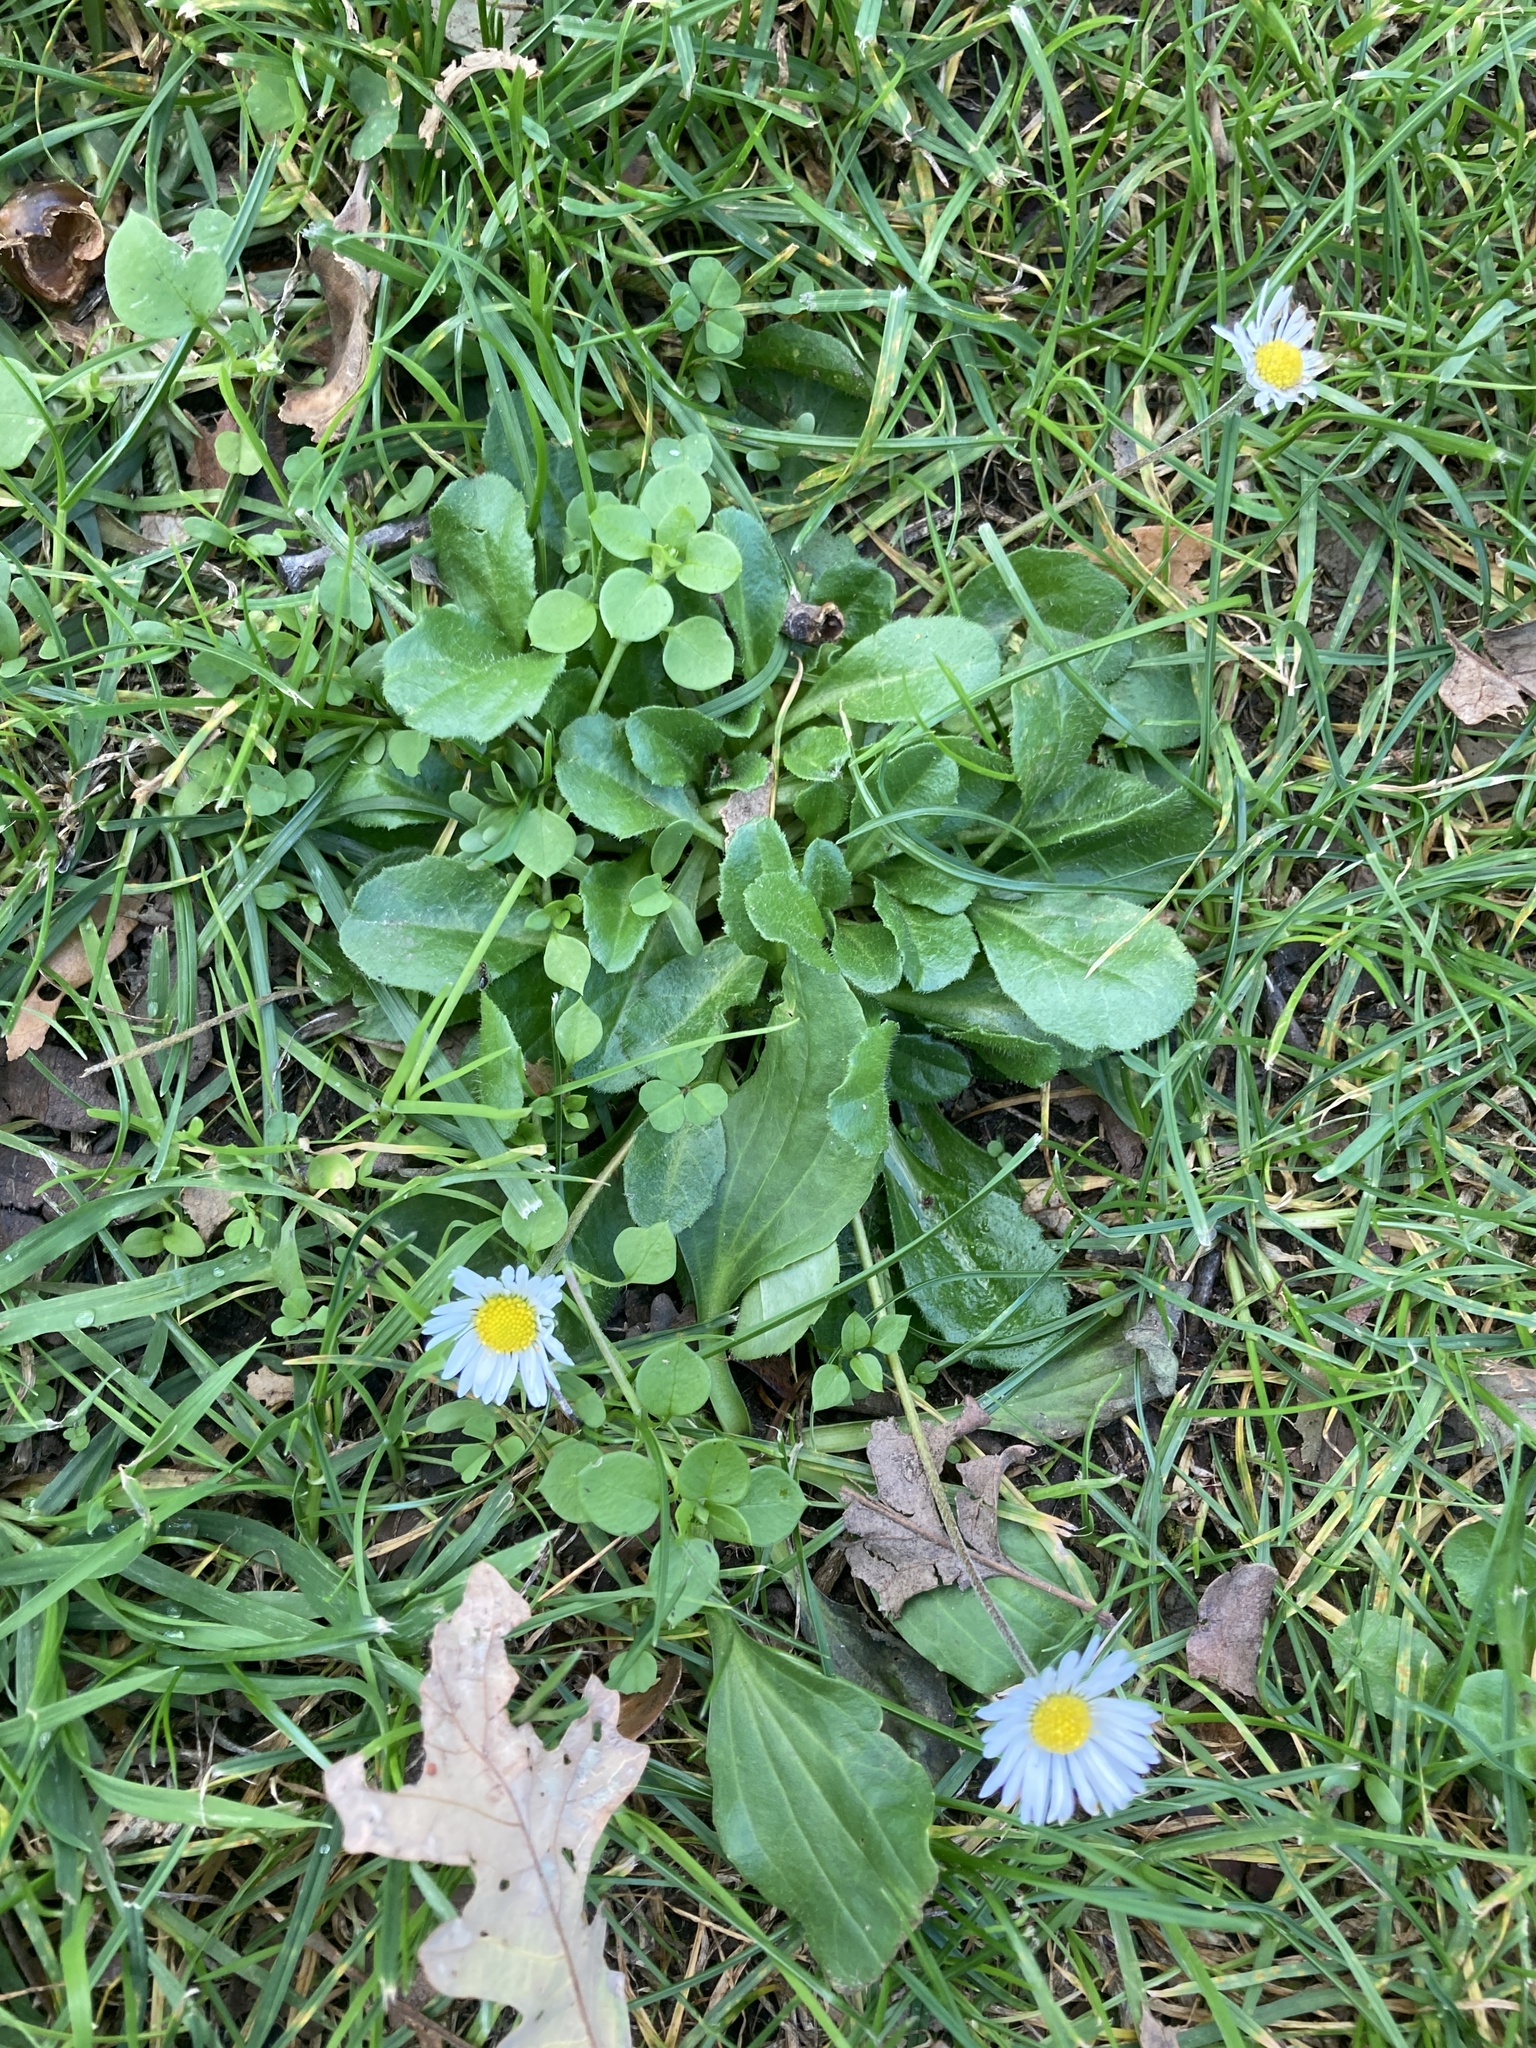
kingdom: Plantae
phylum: Tracheophyta
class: Magnoliopsida
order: Asterales
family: Asteraceae
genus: Bellis
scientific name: Bellis perennis
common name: Lawndaisy
